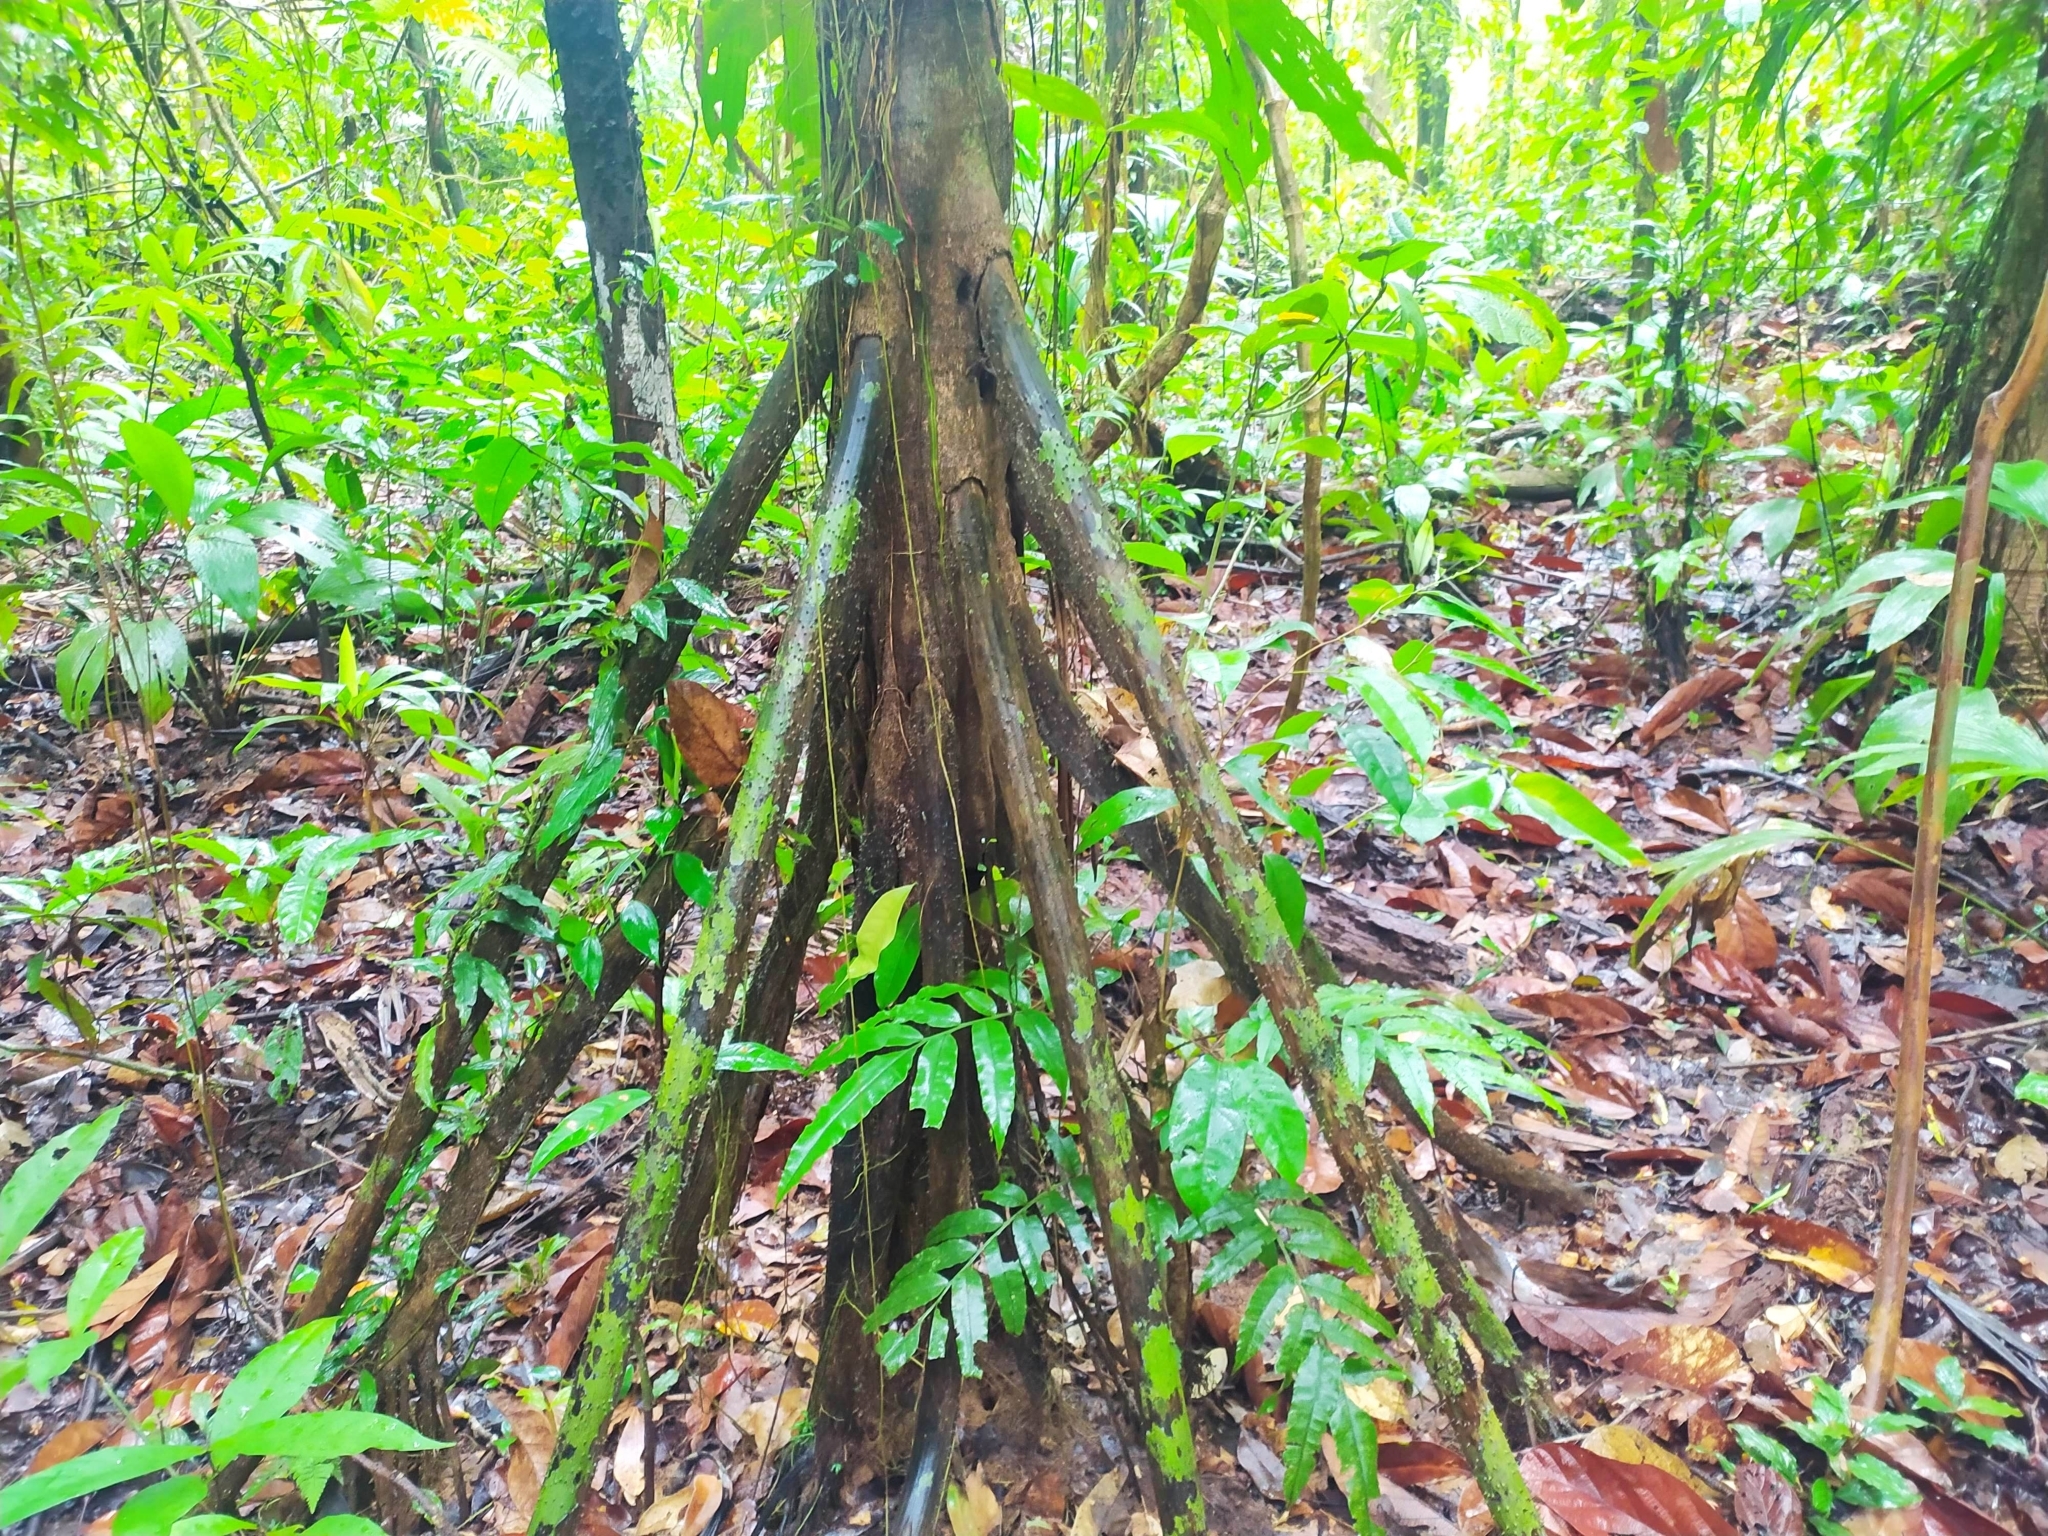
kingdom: Plantae
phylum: Tracheophyta
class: Liliopsida
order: Arecales
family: Arecaceae
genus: Socratea
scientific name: Socratea exorrhiza
